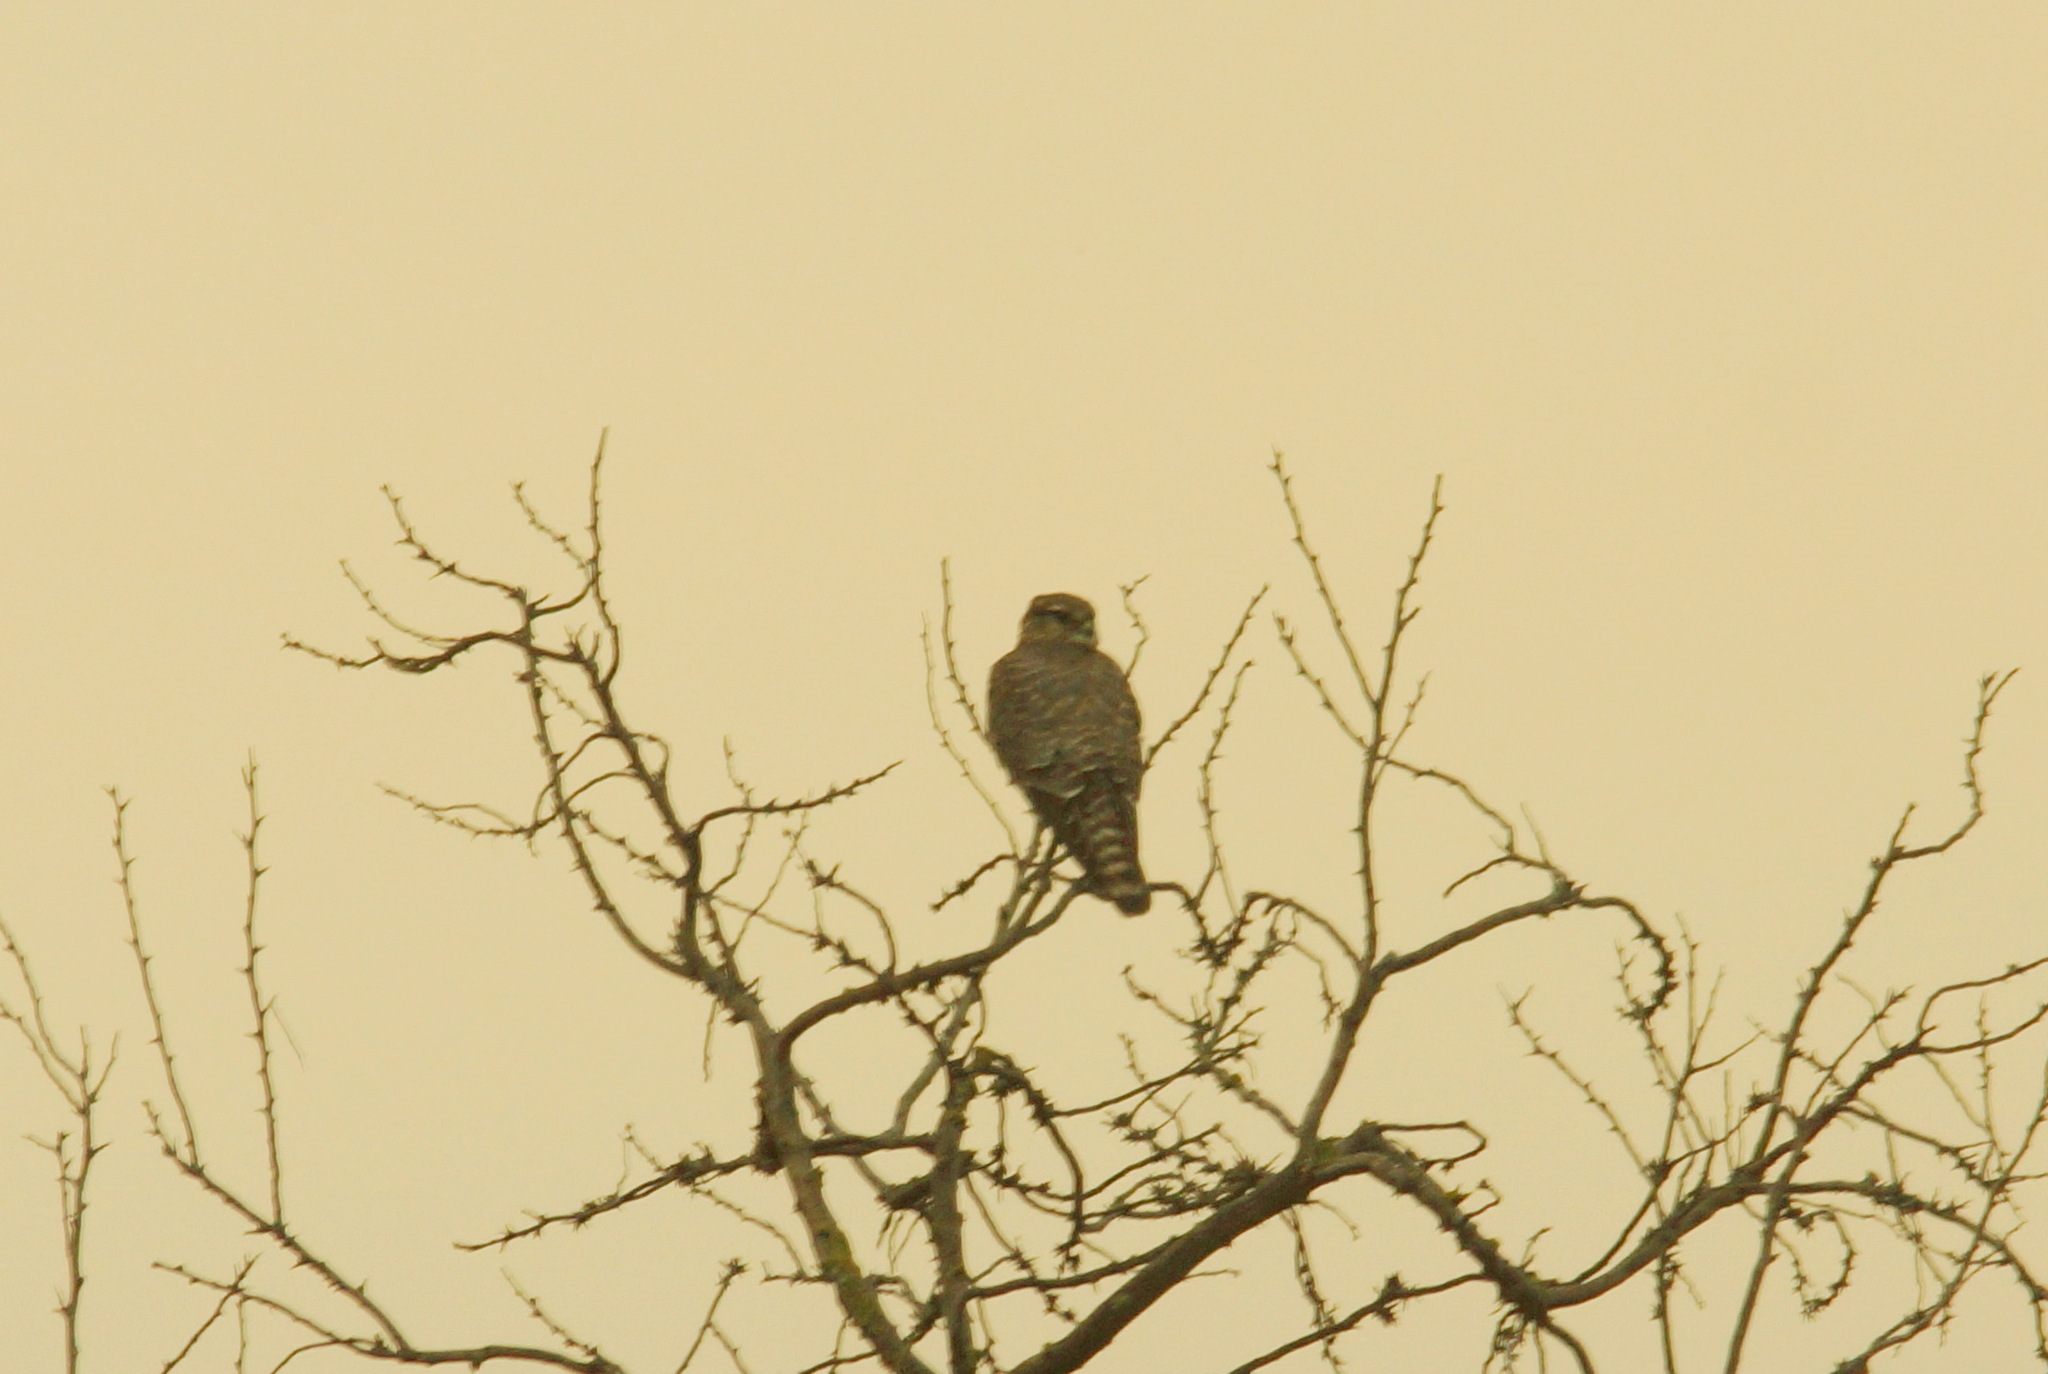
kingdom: Animalia
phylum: Chordata
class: Aves
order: Falconiformes
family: Falconidae
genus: Falco
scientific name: Falco columbarius
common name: Merlin
